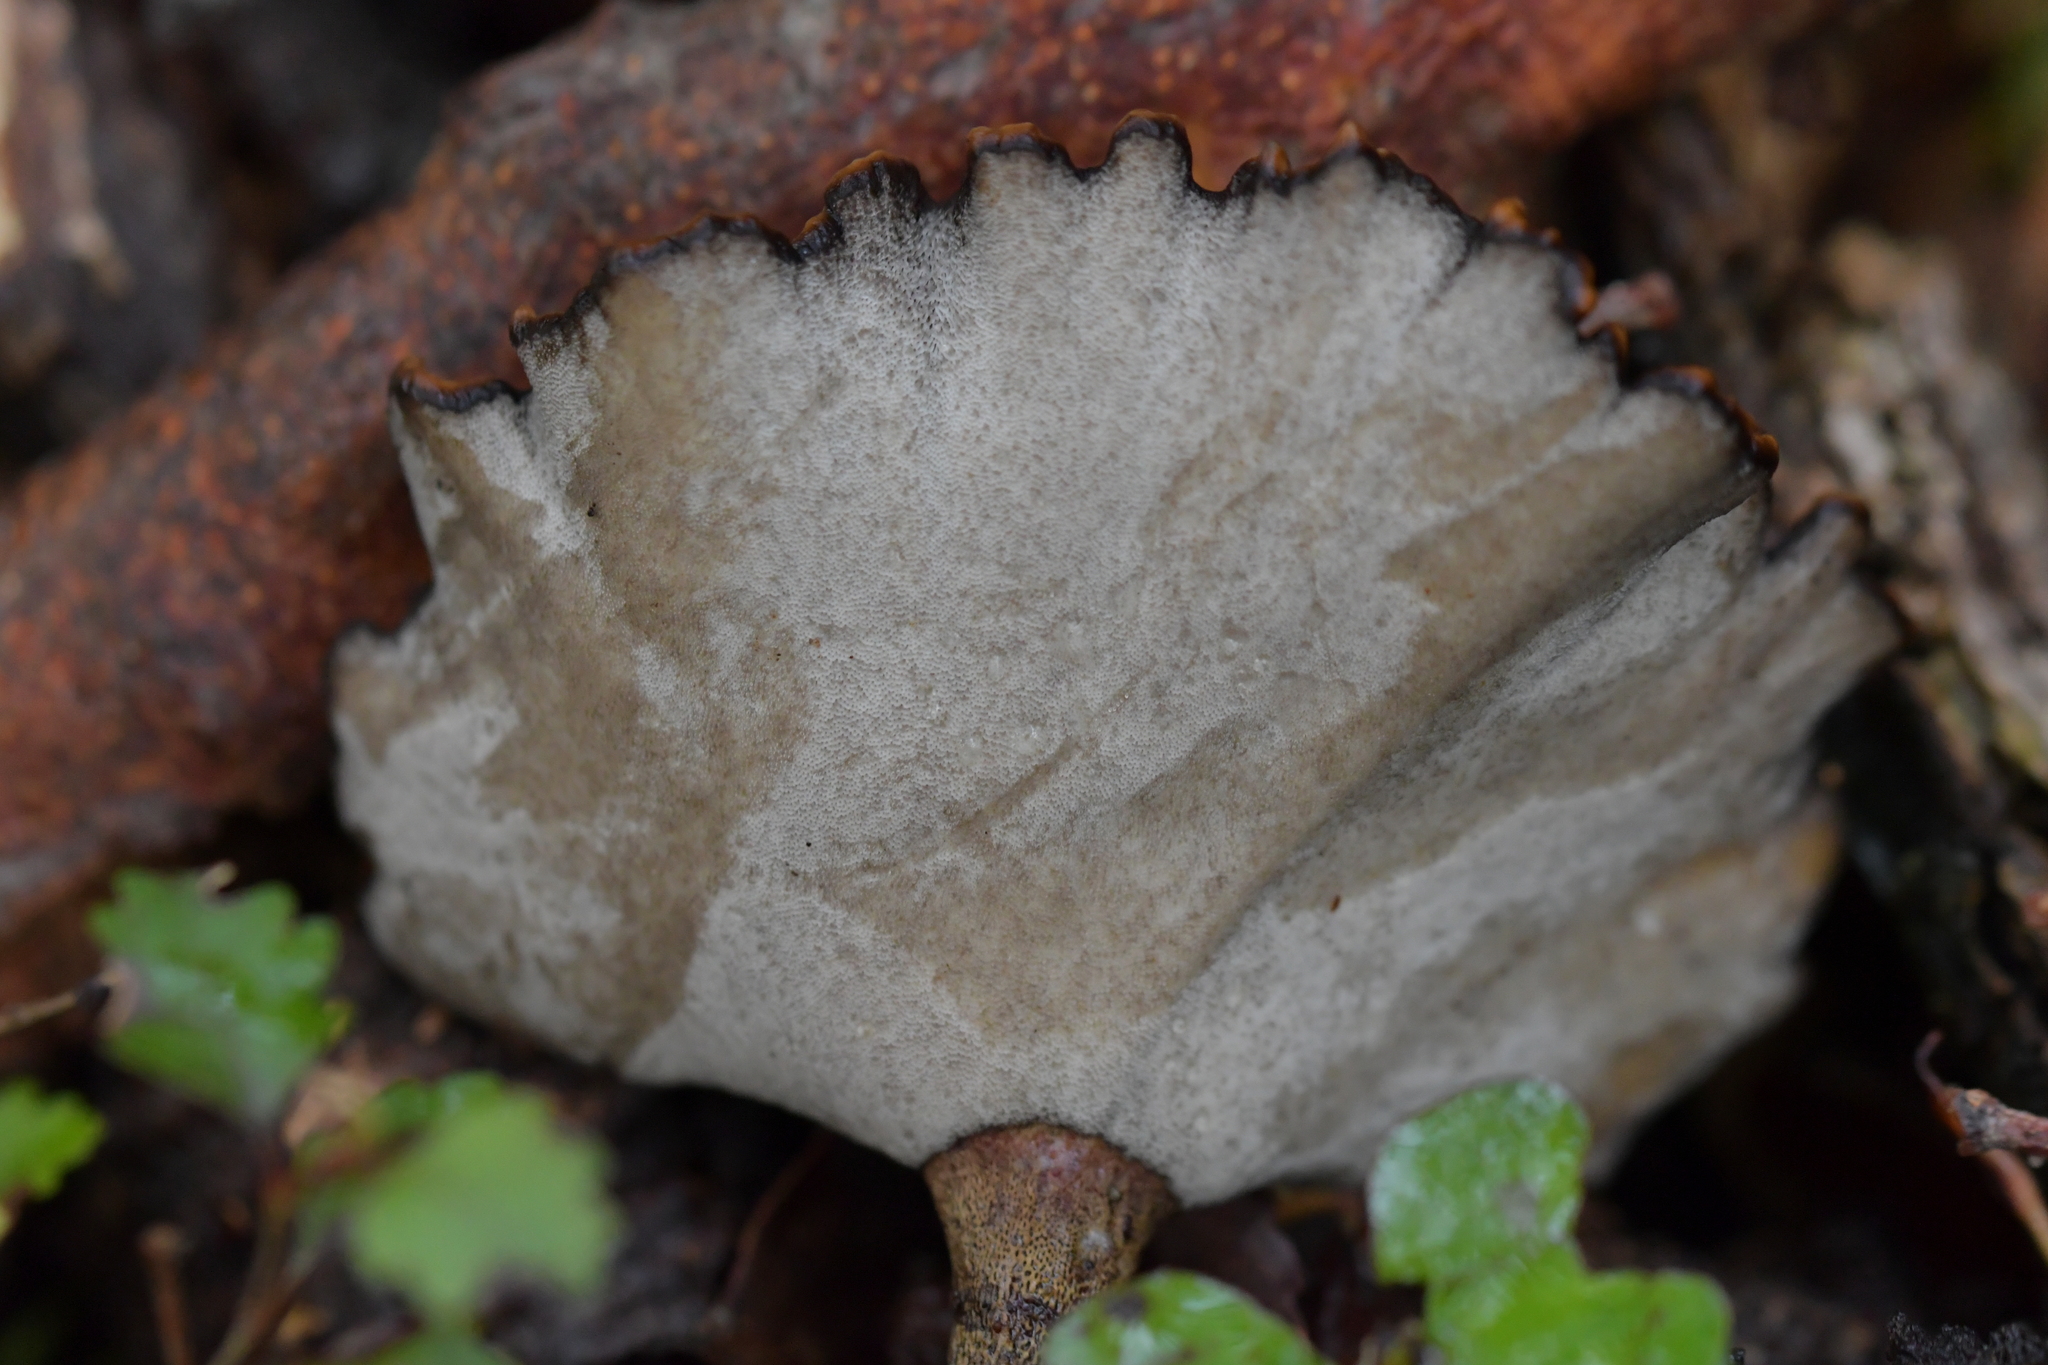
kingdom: Fungi
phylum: Basidiomycota
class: Agaricomycetes
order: Polyporales
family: Polyporaceae
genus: Polyporus
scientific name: Polyporus nigrocristatus
